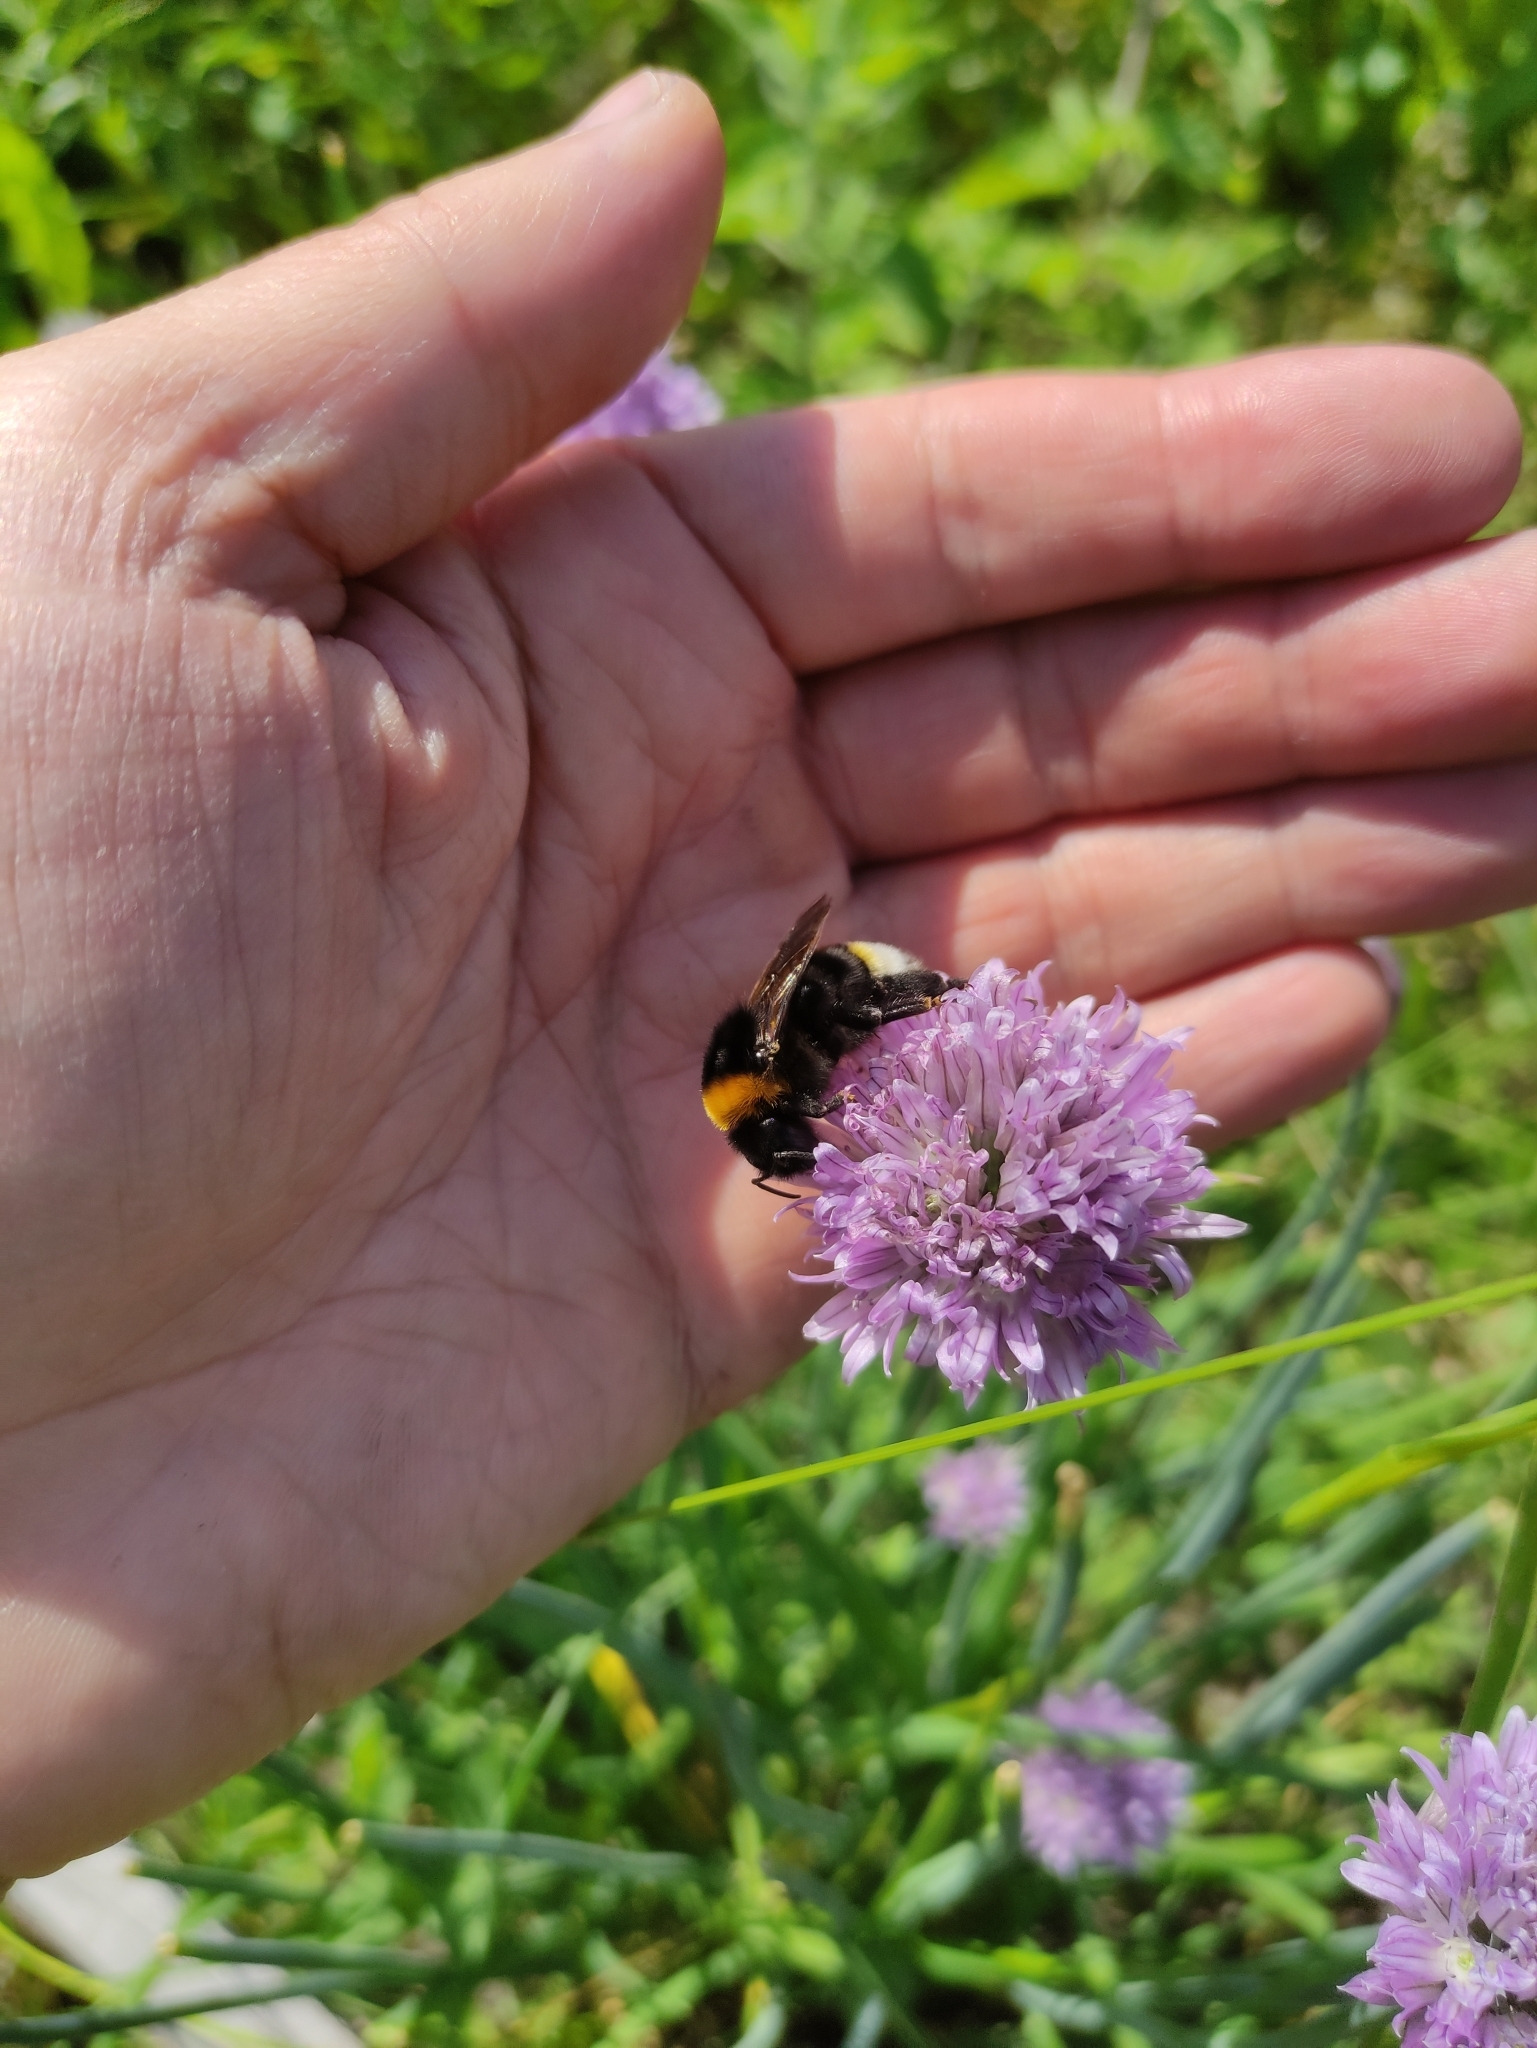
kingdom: Animalia
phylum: Arthropoda
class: Insecta
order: Hymenoptera
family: Apidae
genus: Bombus
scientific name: Bombus vestalis
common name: Vestal cuckoo bee
